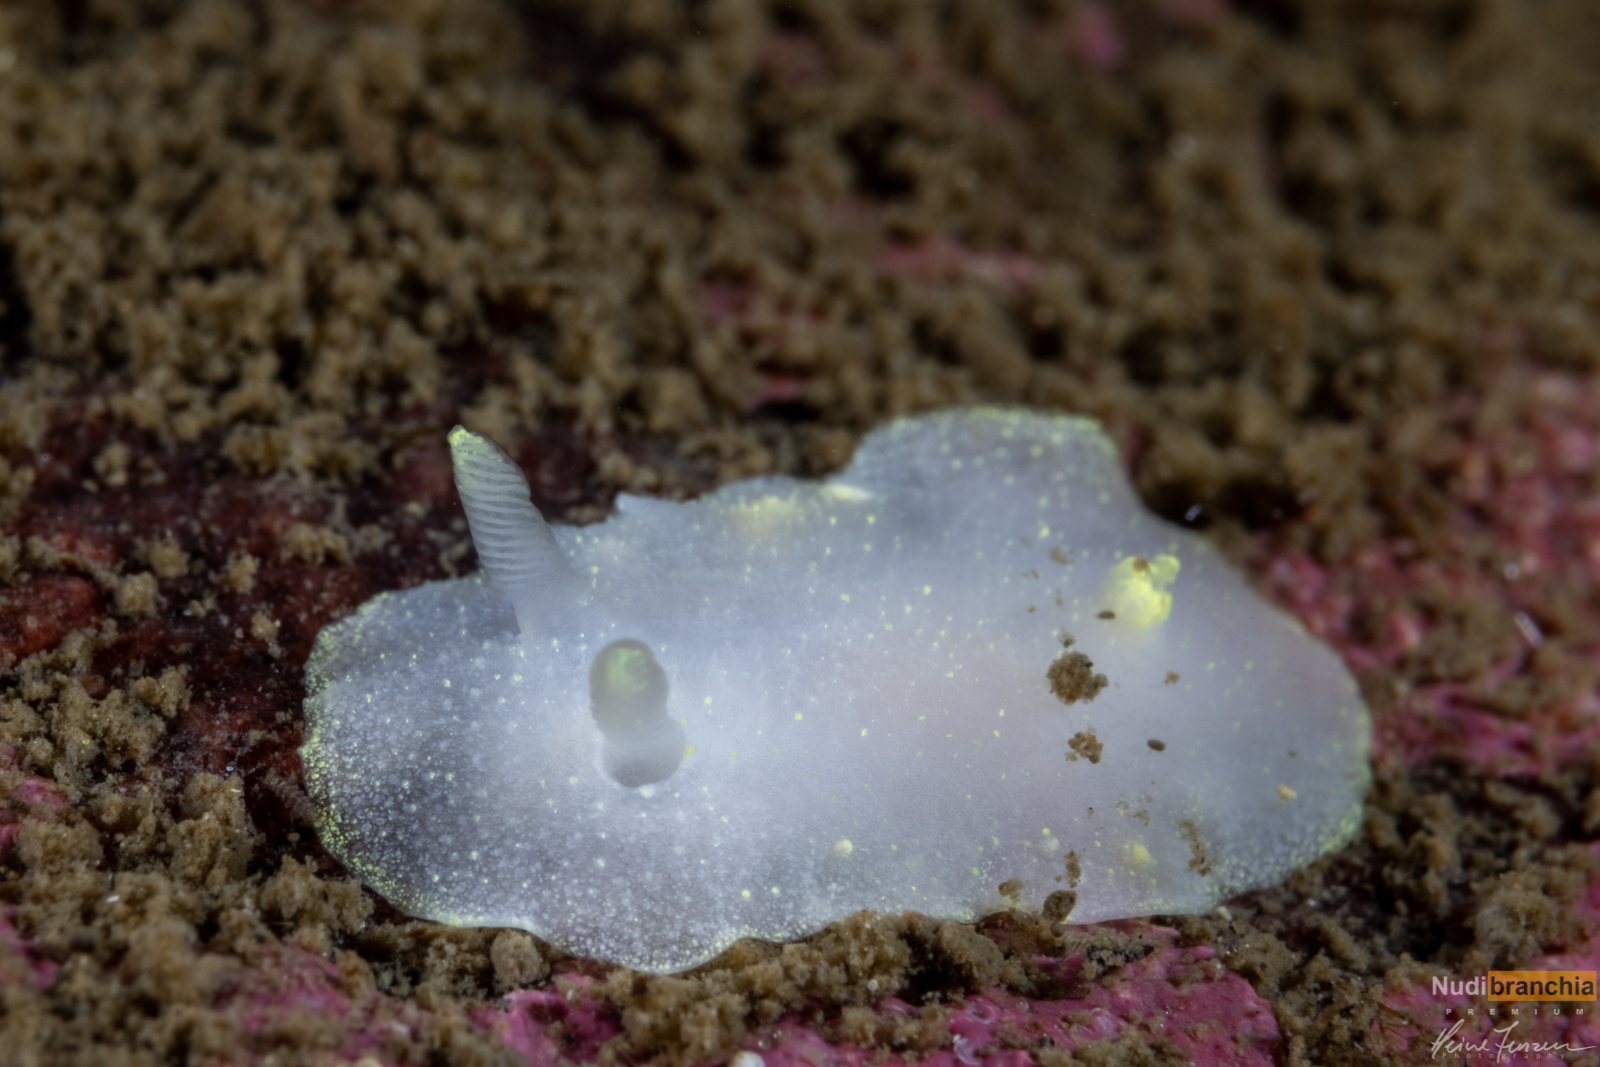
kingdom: Animalia
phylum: Mollusca
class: Gastropoda
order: Nudibranchia
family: Cadlinidae
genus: Cadlina
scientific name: Cadlina laevis
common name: White atlantic cadlina
